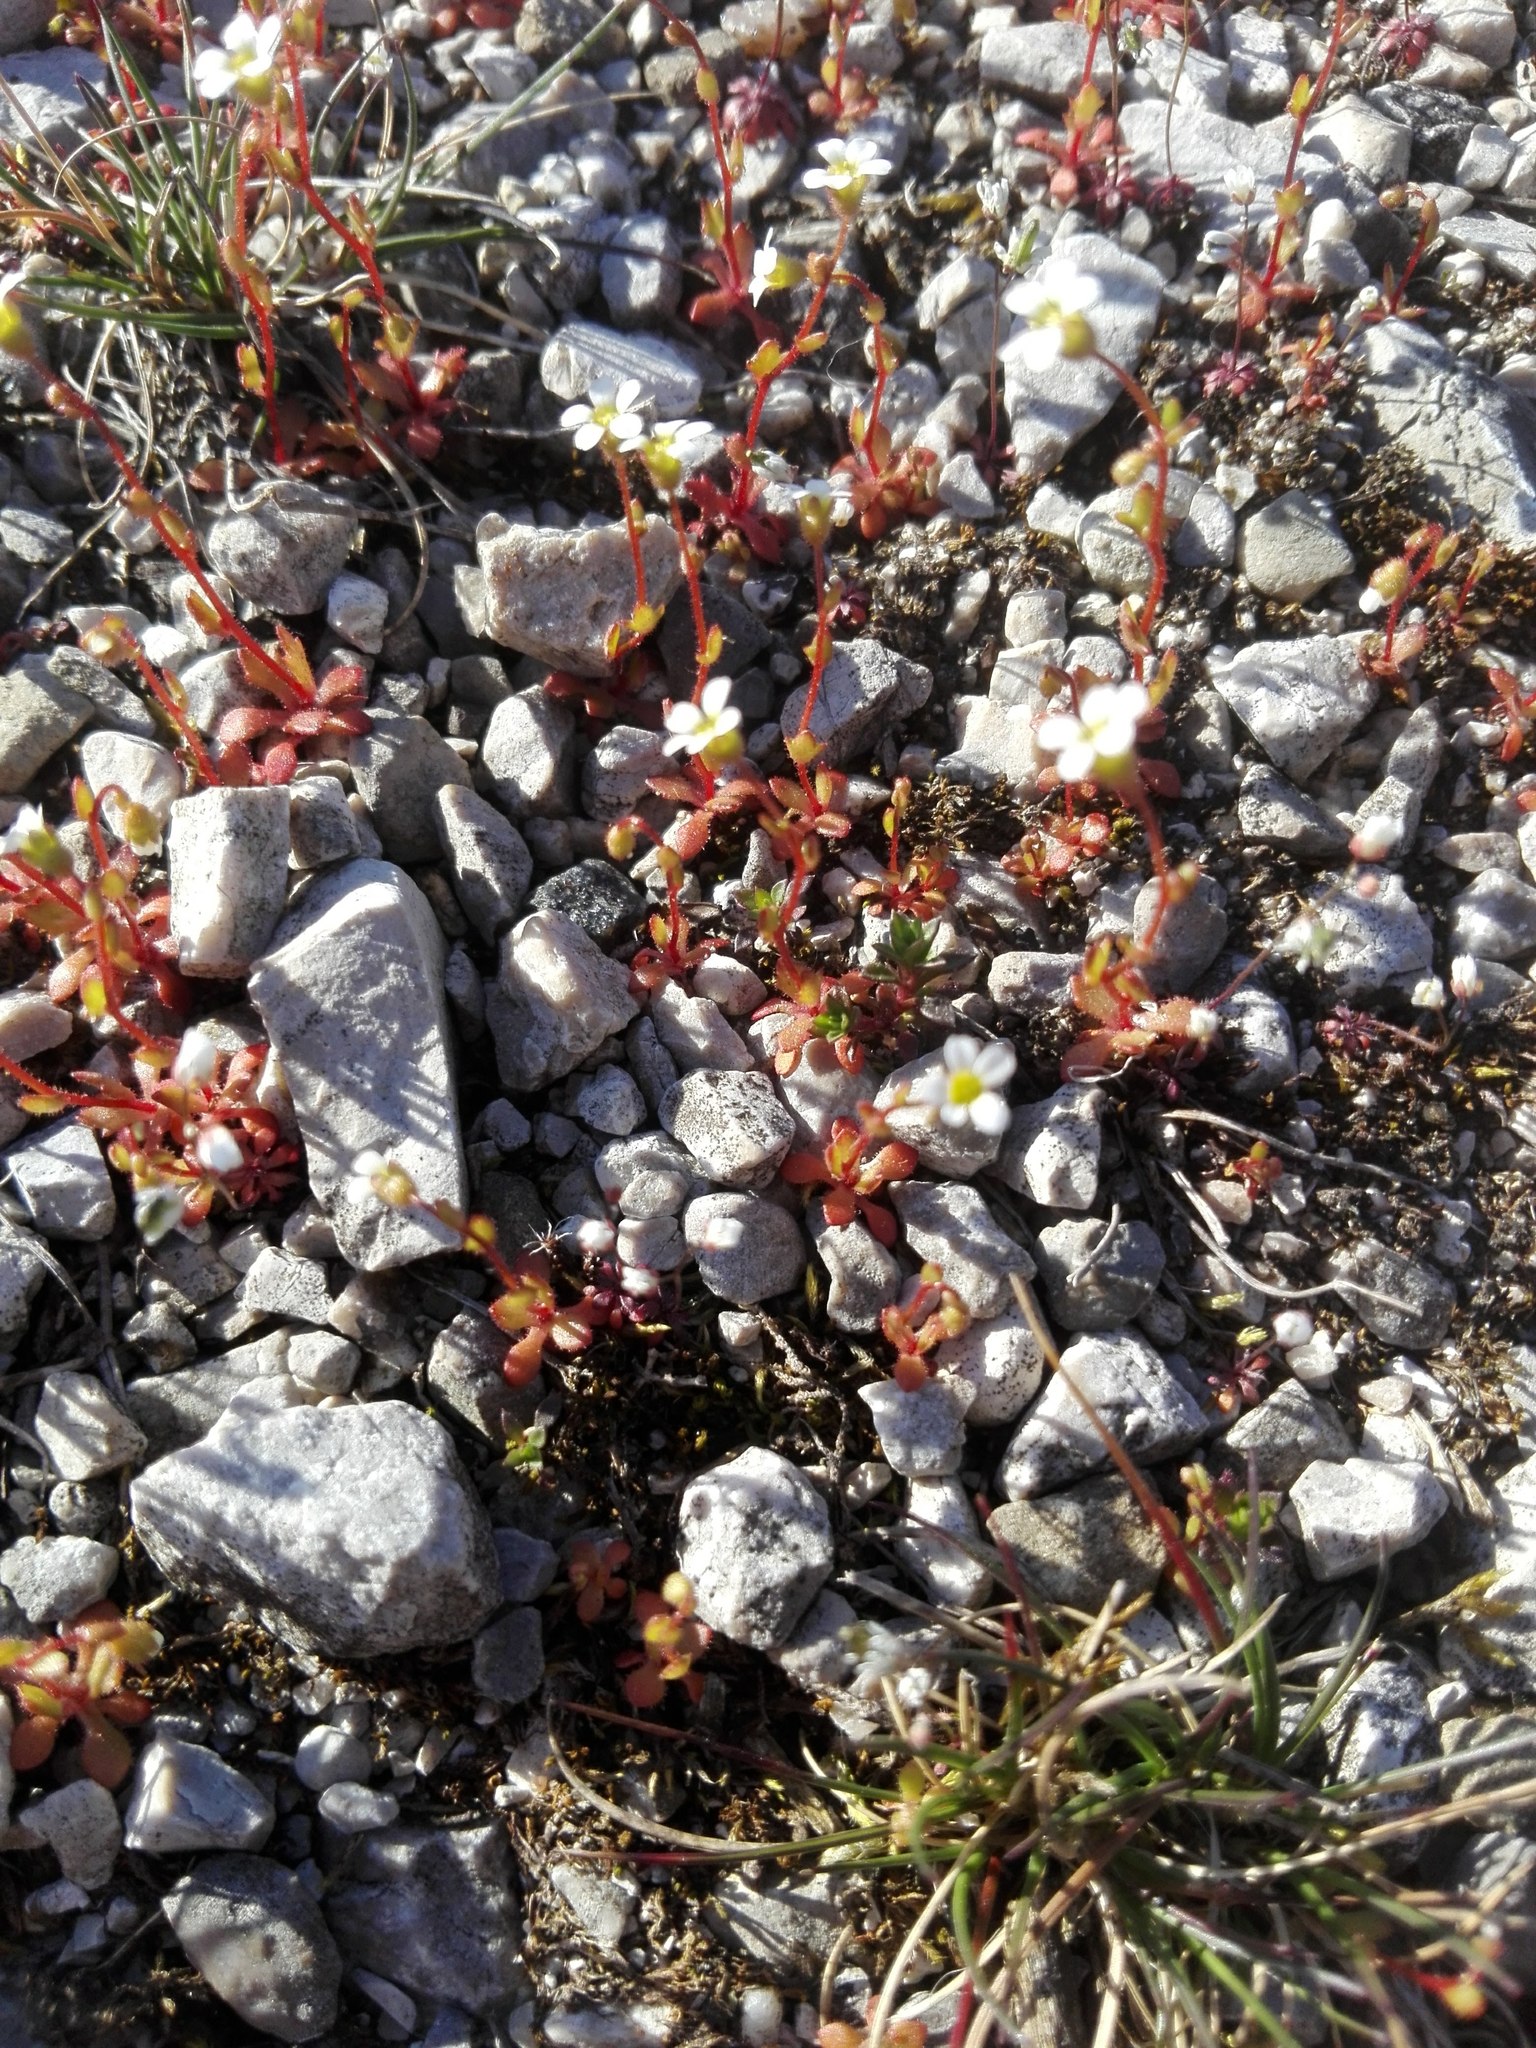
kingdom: Plantae
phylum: Tracheophyta
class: Magnoliopsida
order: Saxifragales
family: Saxifragaceae
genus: Saxifraga
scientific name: Saxifraga tridactylites
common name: Rue-leaved saxifrage
